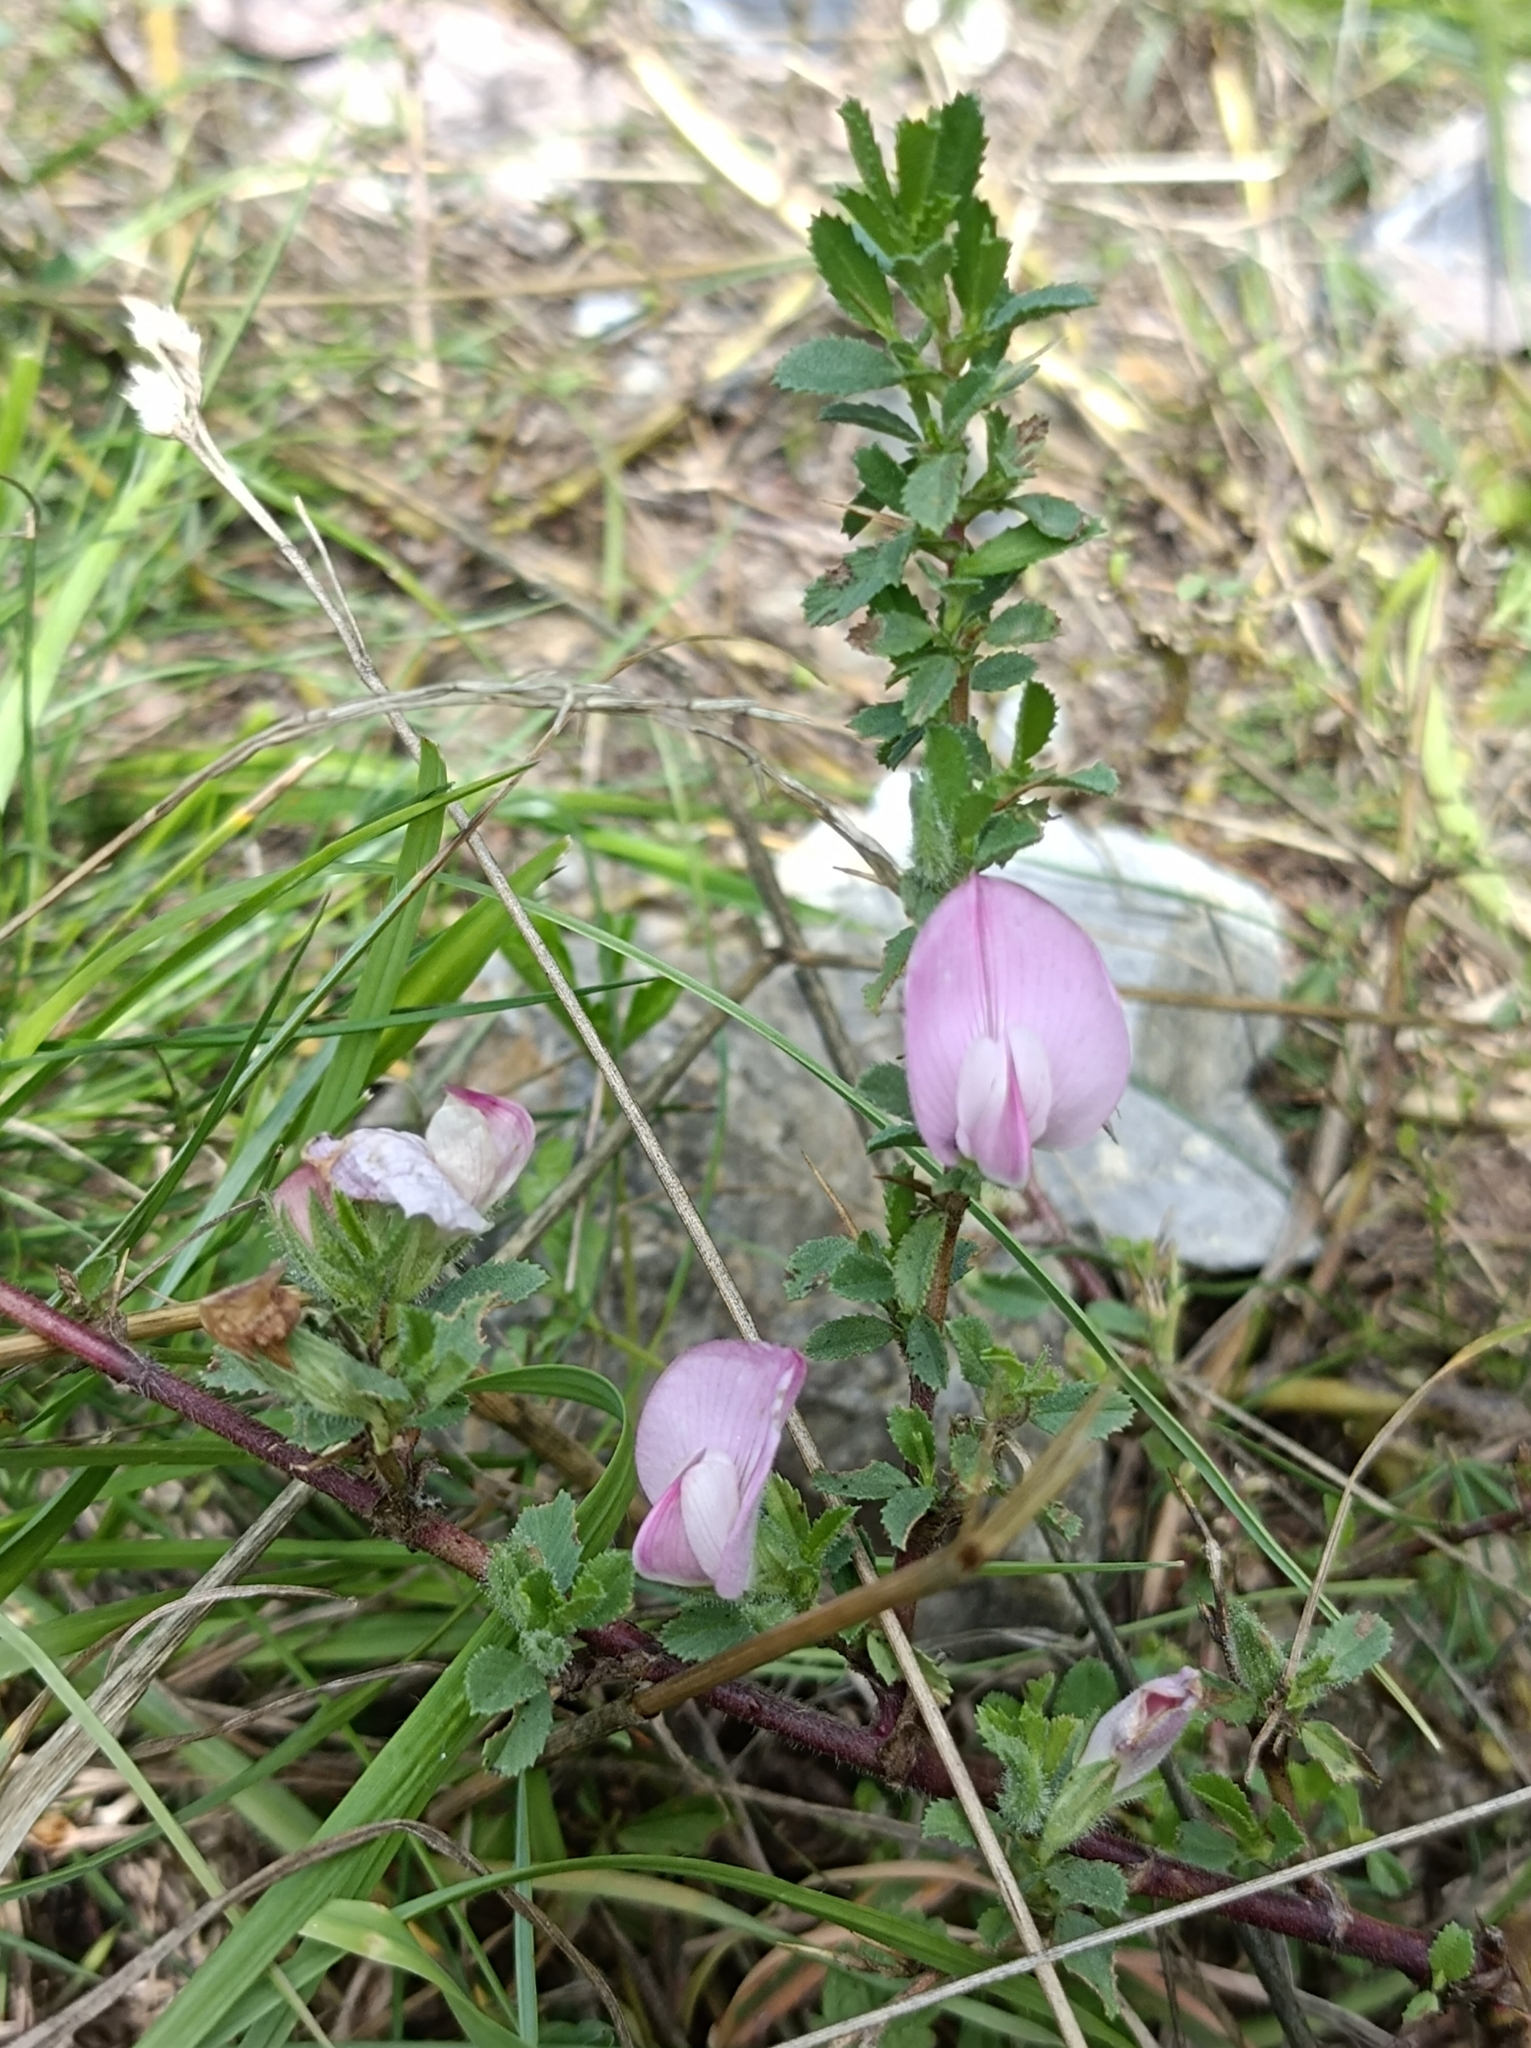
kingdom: Plantae
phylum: Tracheophyta
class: Magnoliopsida
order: Fabales
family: Fabaceae
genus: Ononis
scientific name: Ononis spinosa
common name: Spiny restharrow
